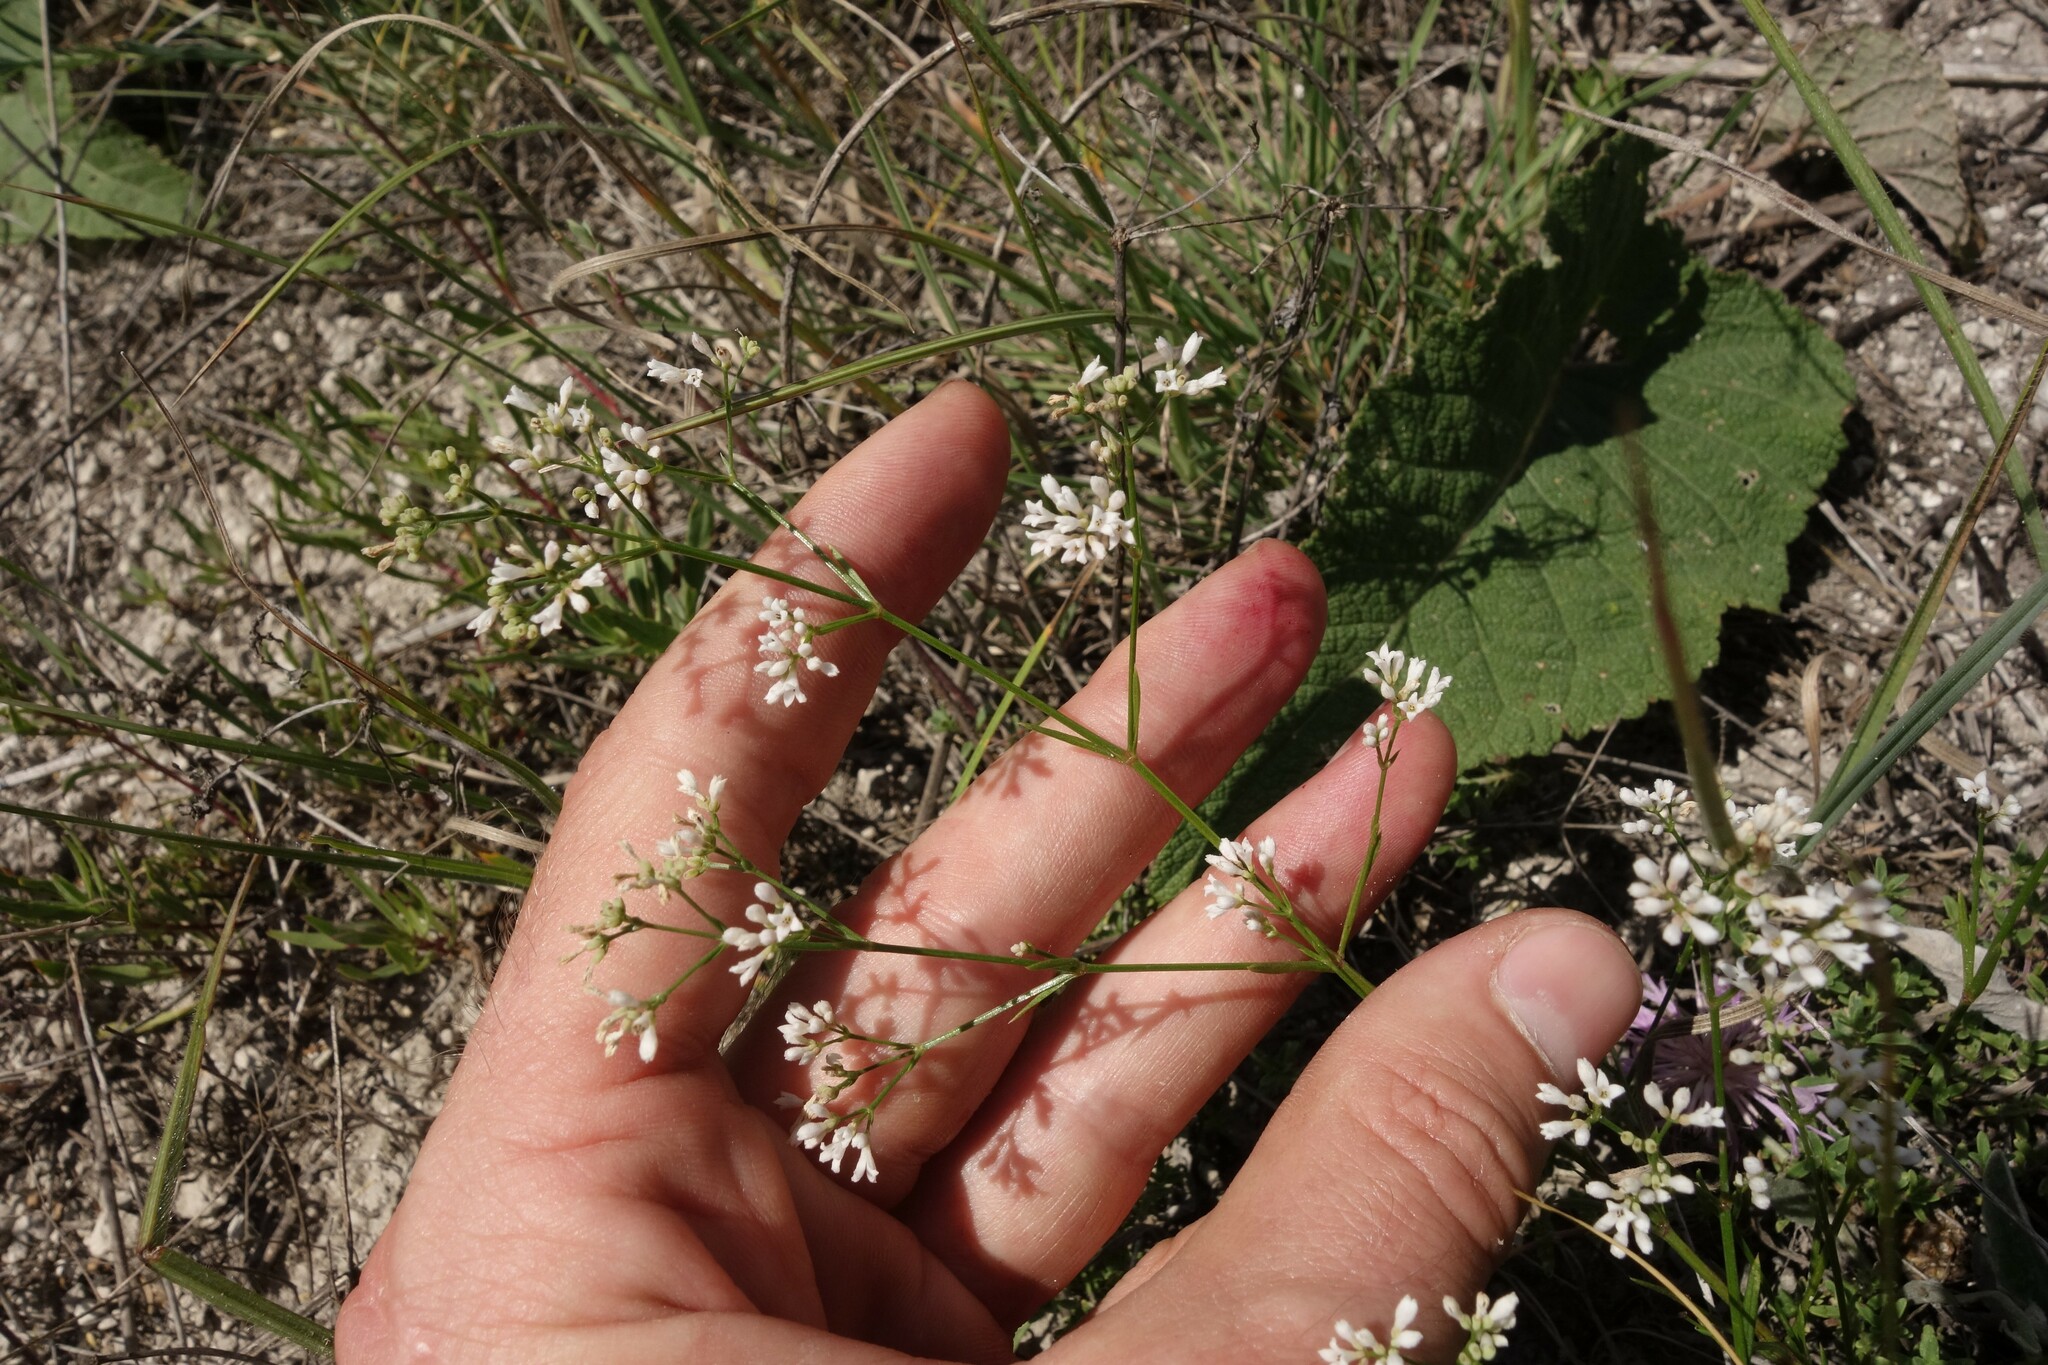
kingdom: Plantae
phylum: Tracheophyta
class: Magnoliopsida
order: Gentianales
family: Rubiaceae
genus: Cynanchica
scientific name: Cynanchica pyrenaica
